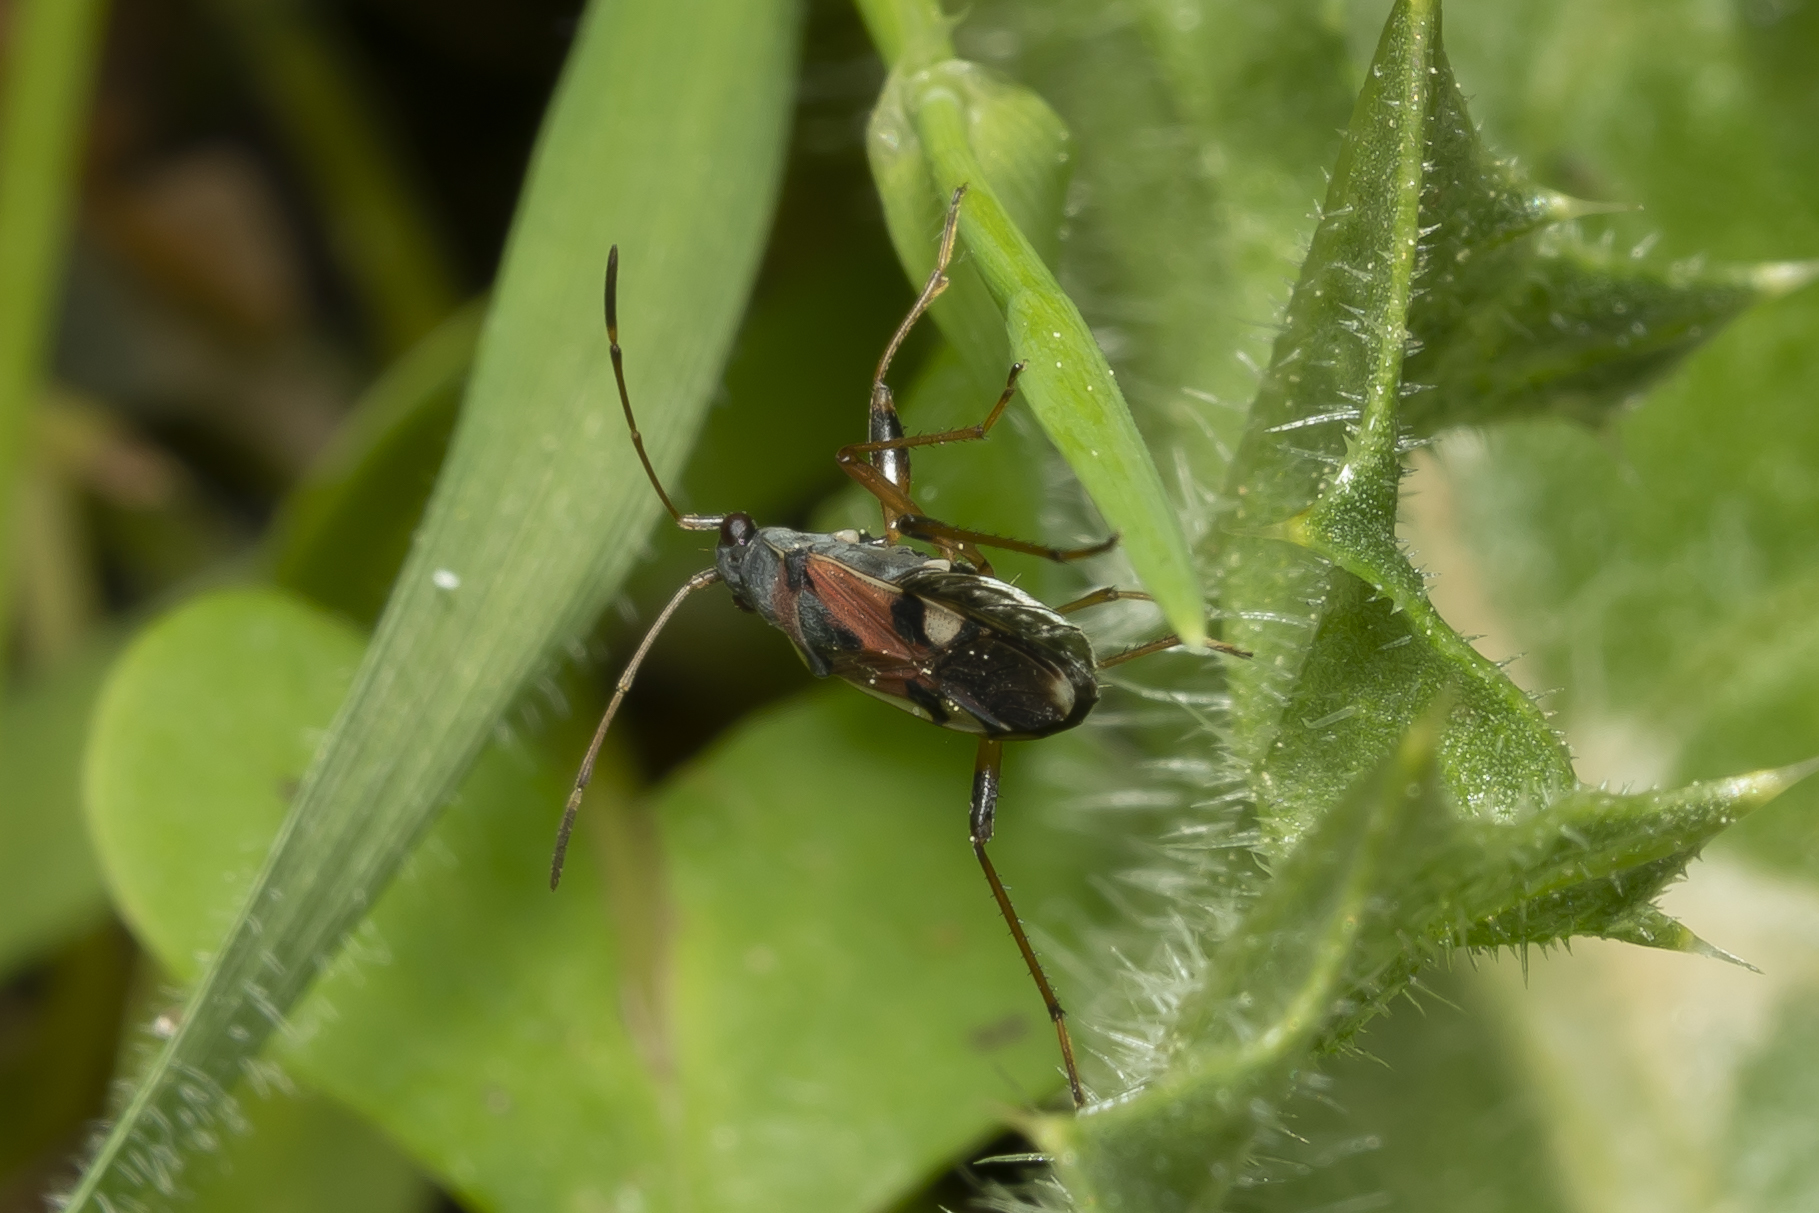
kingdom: Animalia
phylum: Arthropoda
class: Insecta
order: Hemiptera
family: Rhyparochromidae
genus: Beosus
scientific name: Beosus quadripunctatus
